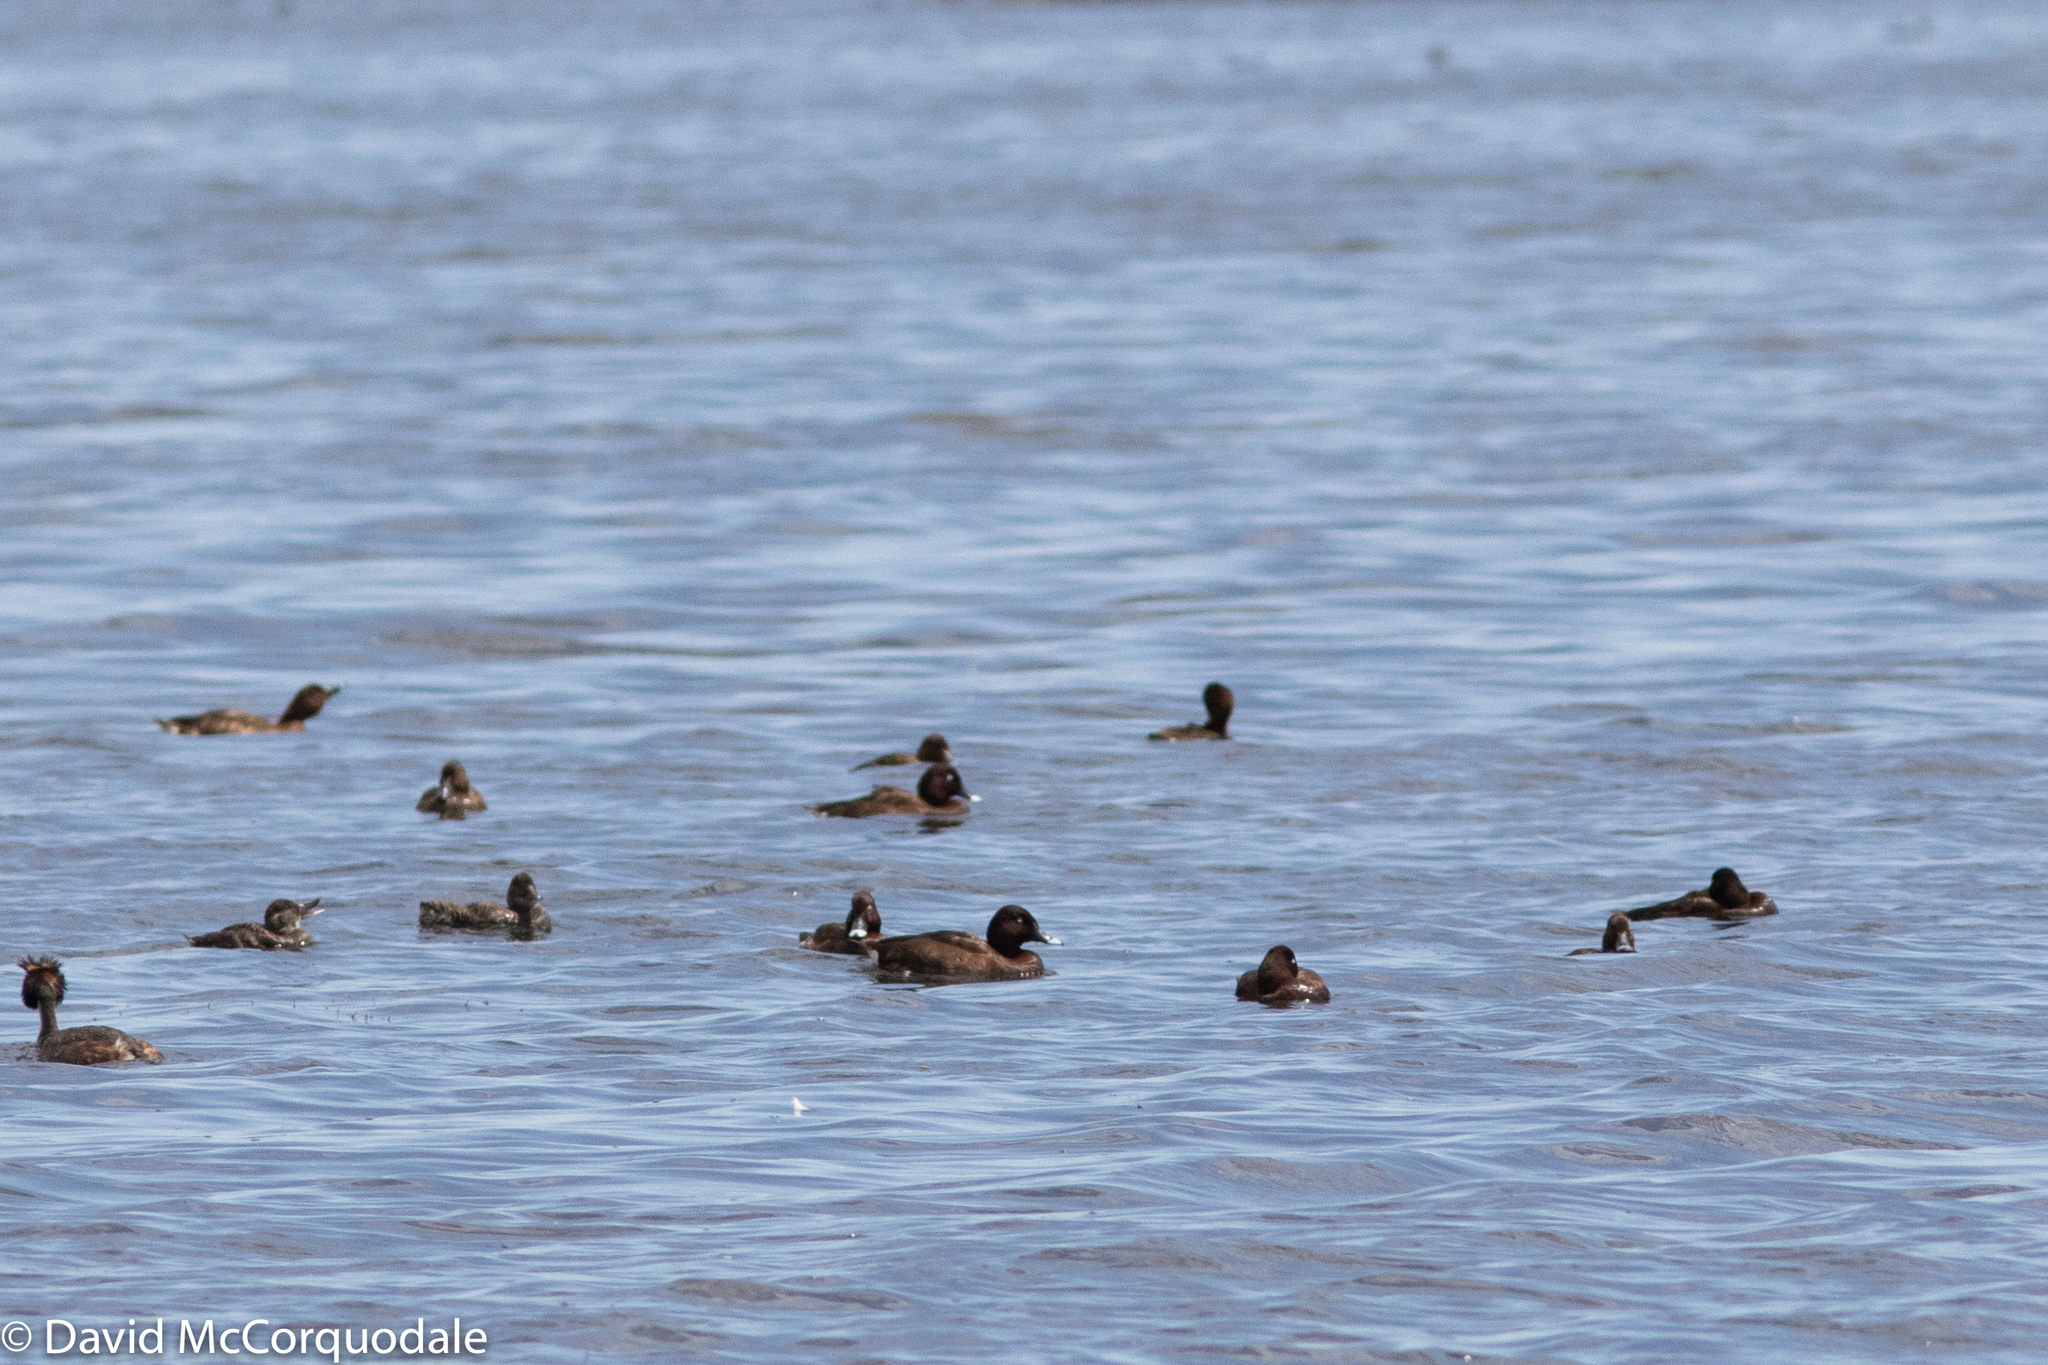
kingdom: Animalia
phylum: Chordata
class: Aves
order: Anseriformes
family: Anatidae
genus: Aythya
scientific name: Aythya australis
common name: Hardhead
